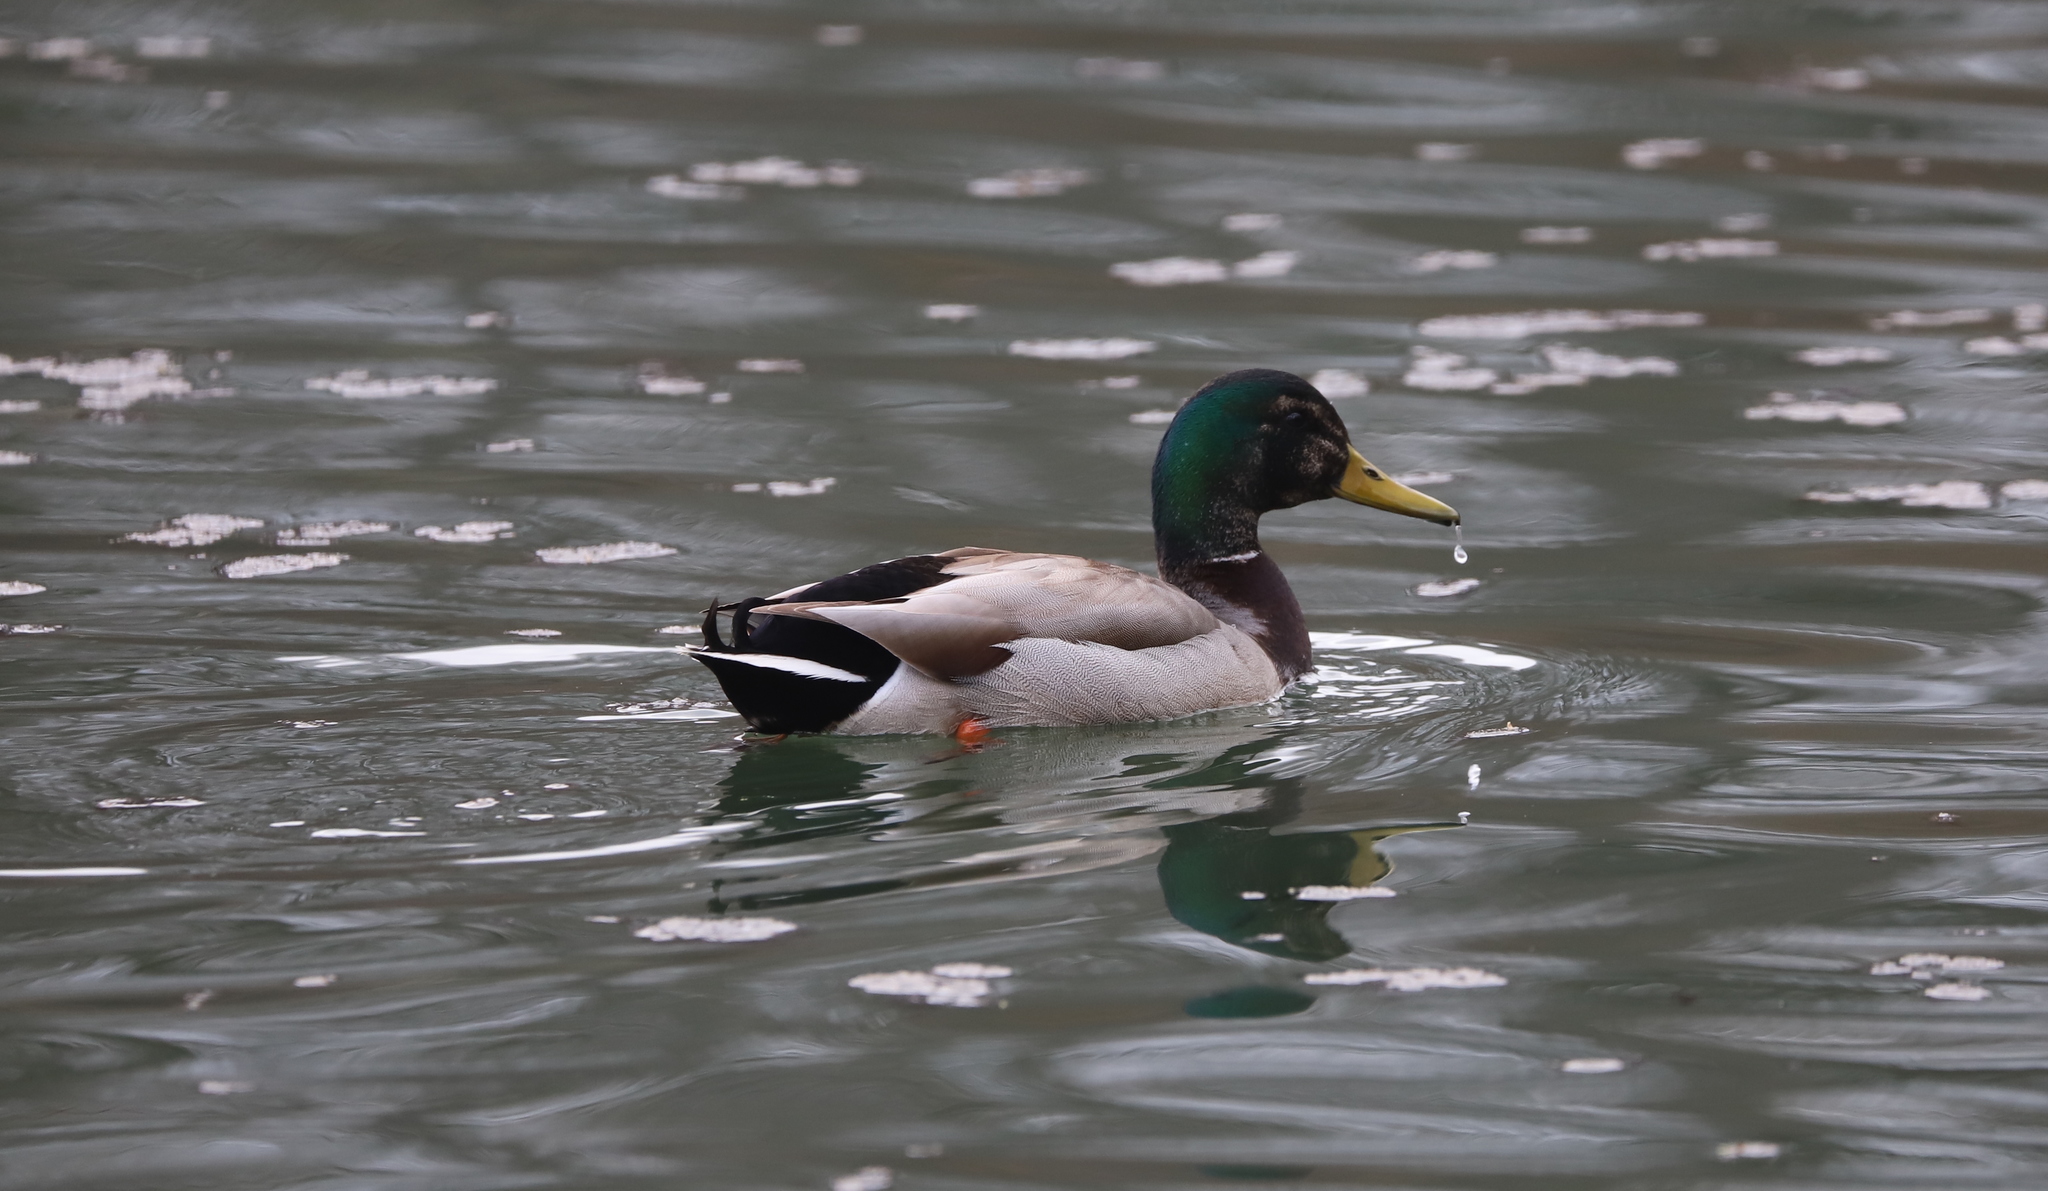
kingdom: Animalia
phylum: Chordata
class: Aves
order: Anseriformes
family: Anatidae
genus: Anas
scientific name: Anas platyrhynchos
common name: Mallard
